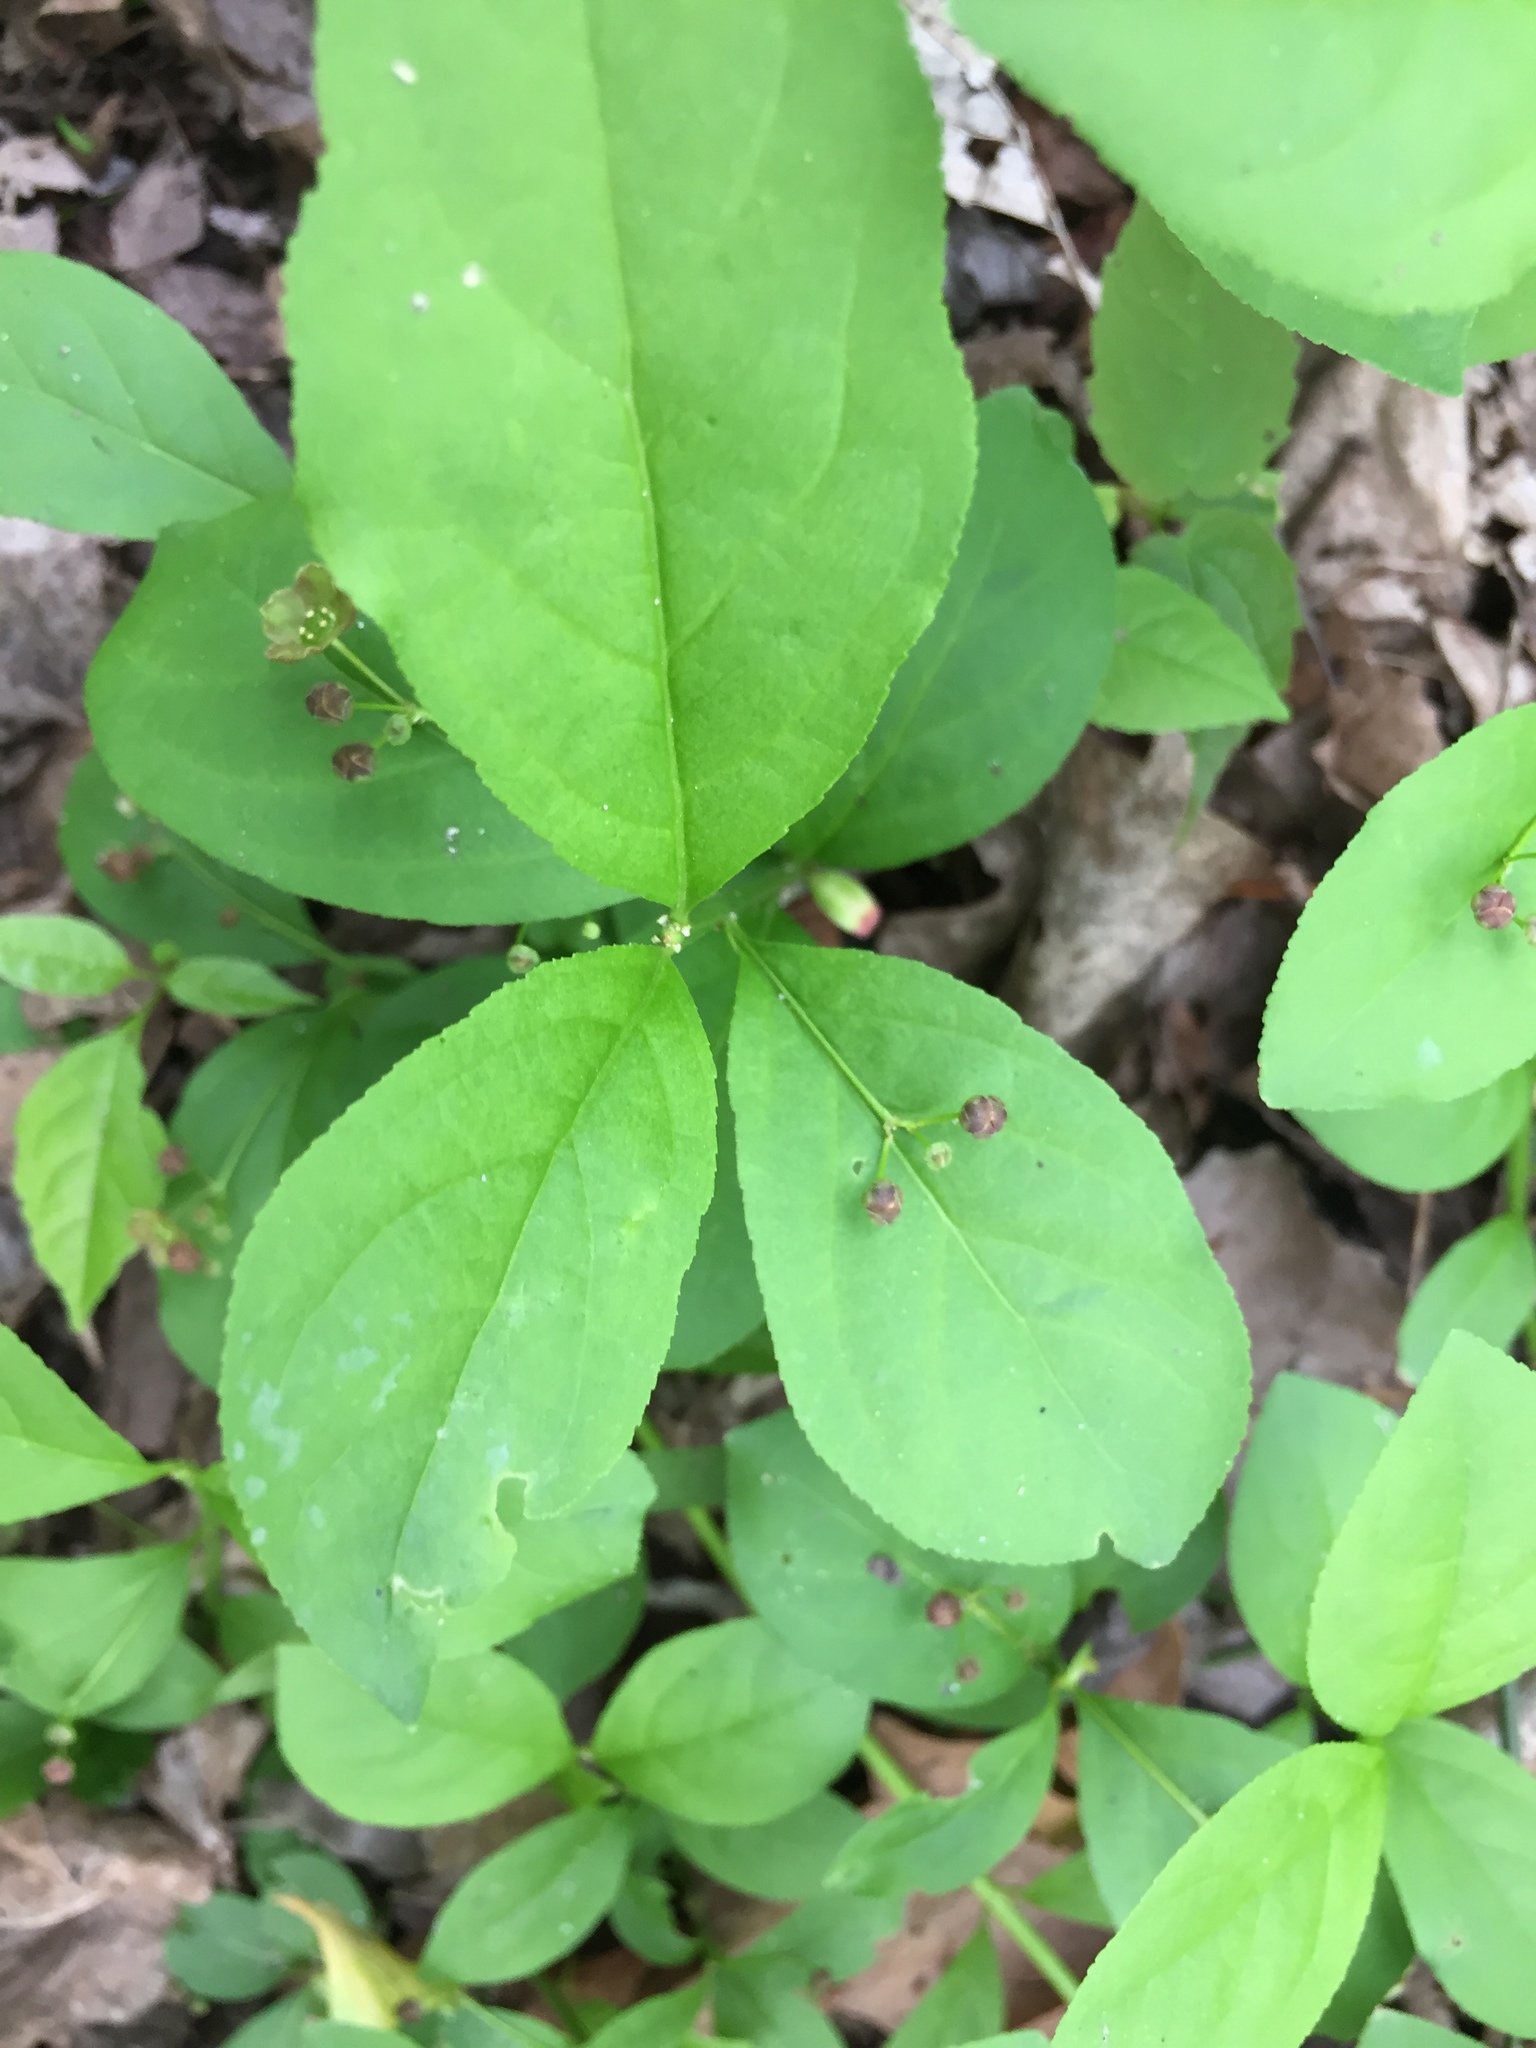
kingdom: Plantae
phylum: Tracheophyta
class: Magnoliopsida
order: Celastrales
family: Celastraceae
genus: Euonymus
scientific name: Euonymus obovatus
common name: Running strawberry-bush
